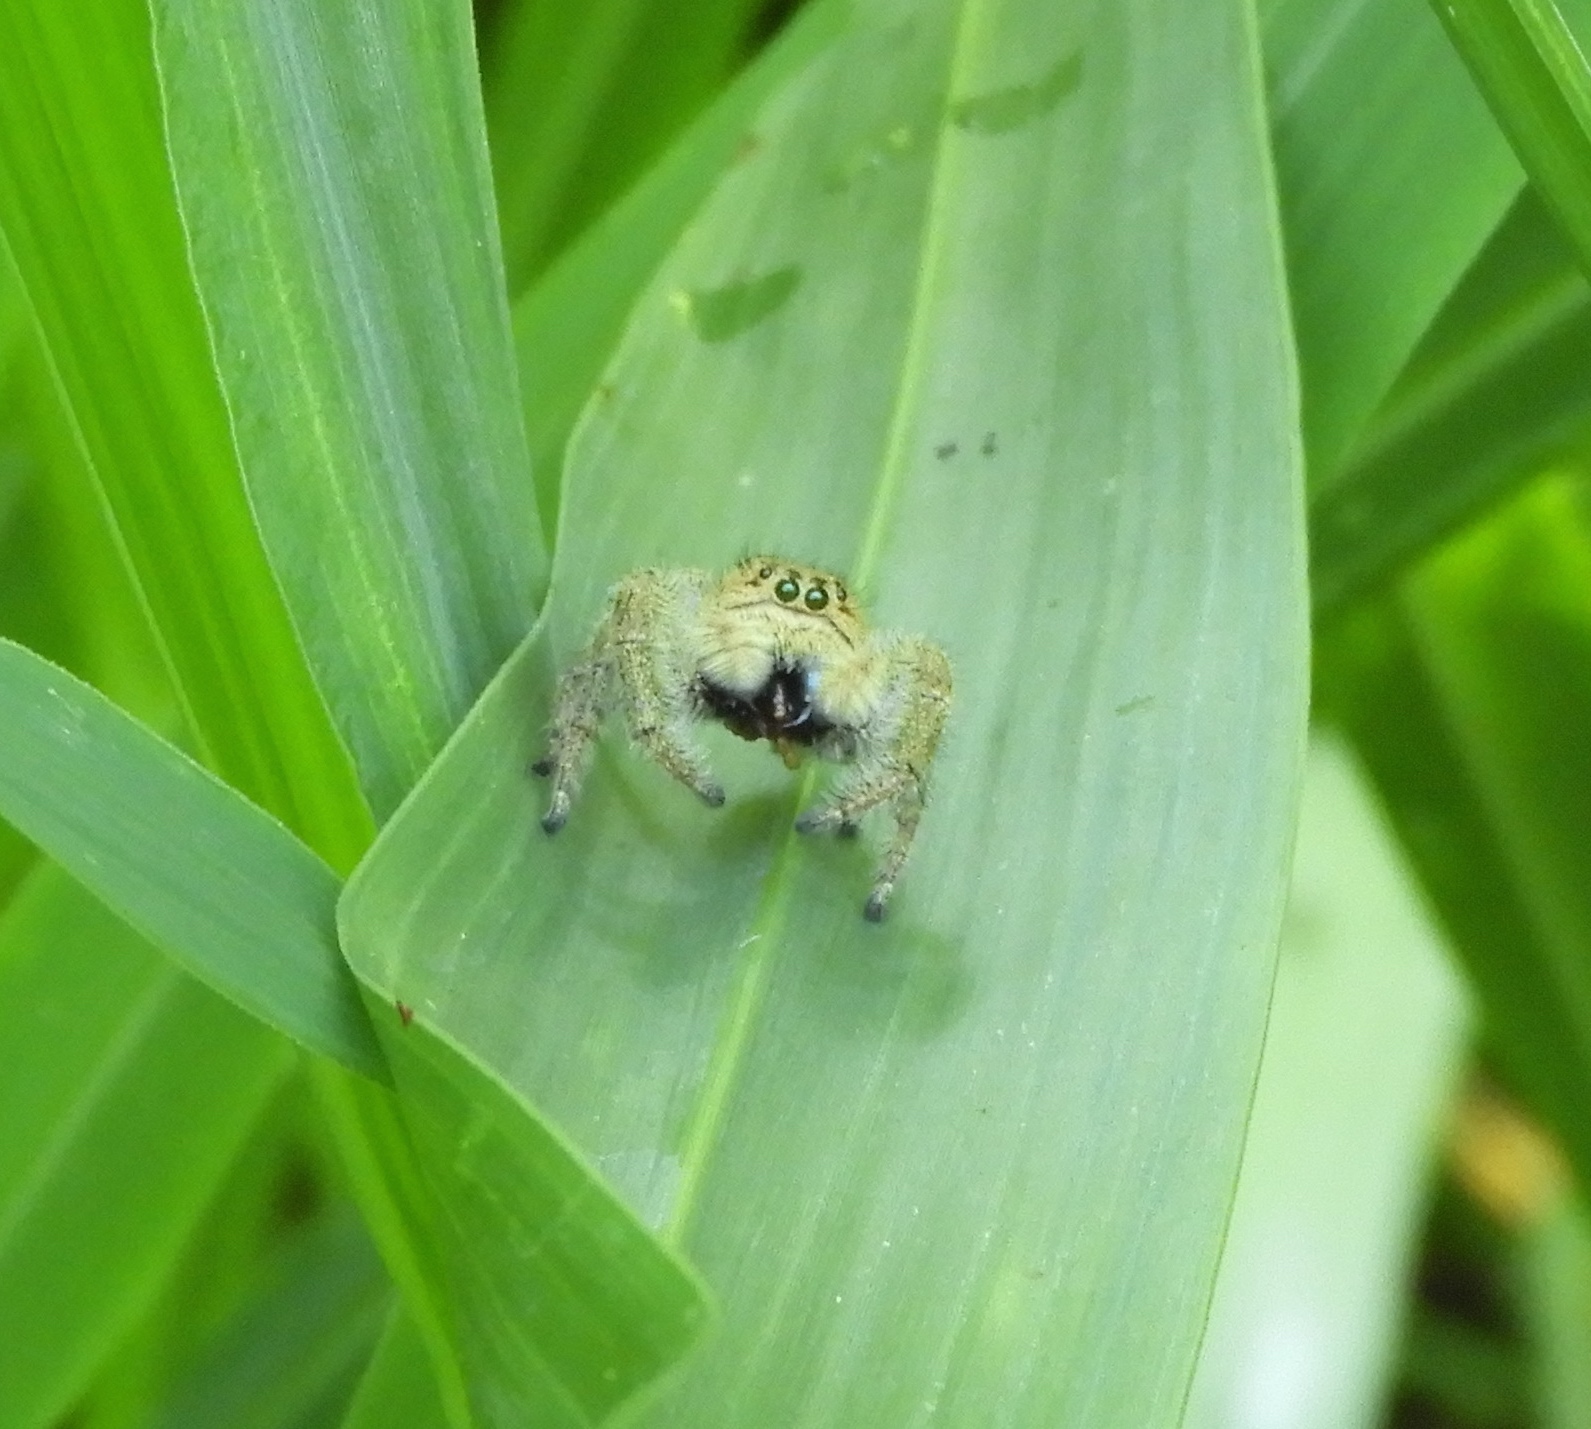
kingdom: Animalia
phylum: Arthropoda
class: Arachnida
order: Araneae
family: Salticidae
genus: Paraphidippus
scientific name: Paraphidippus
